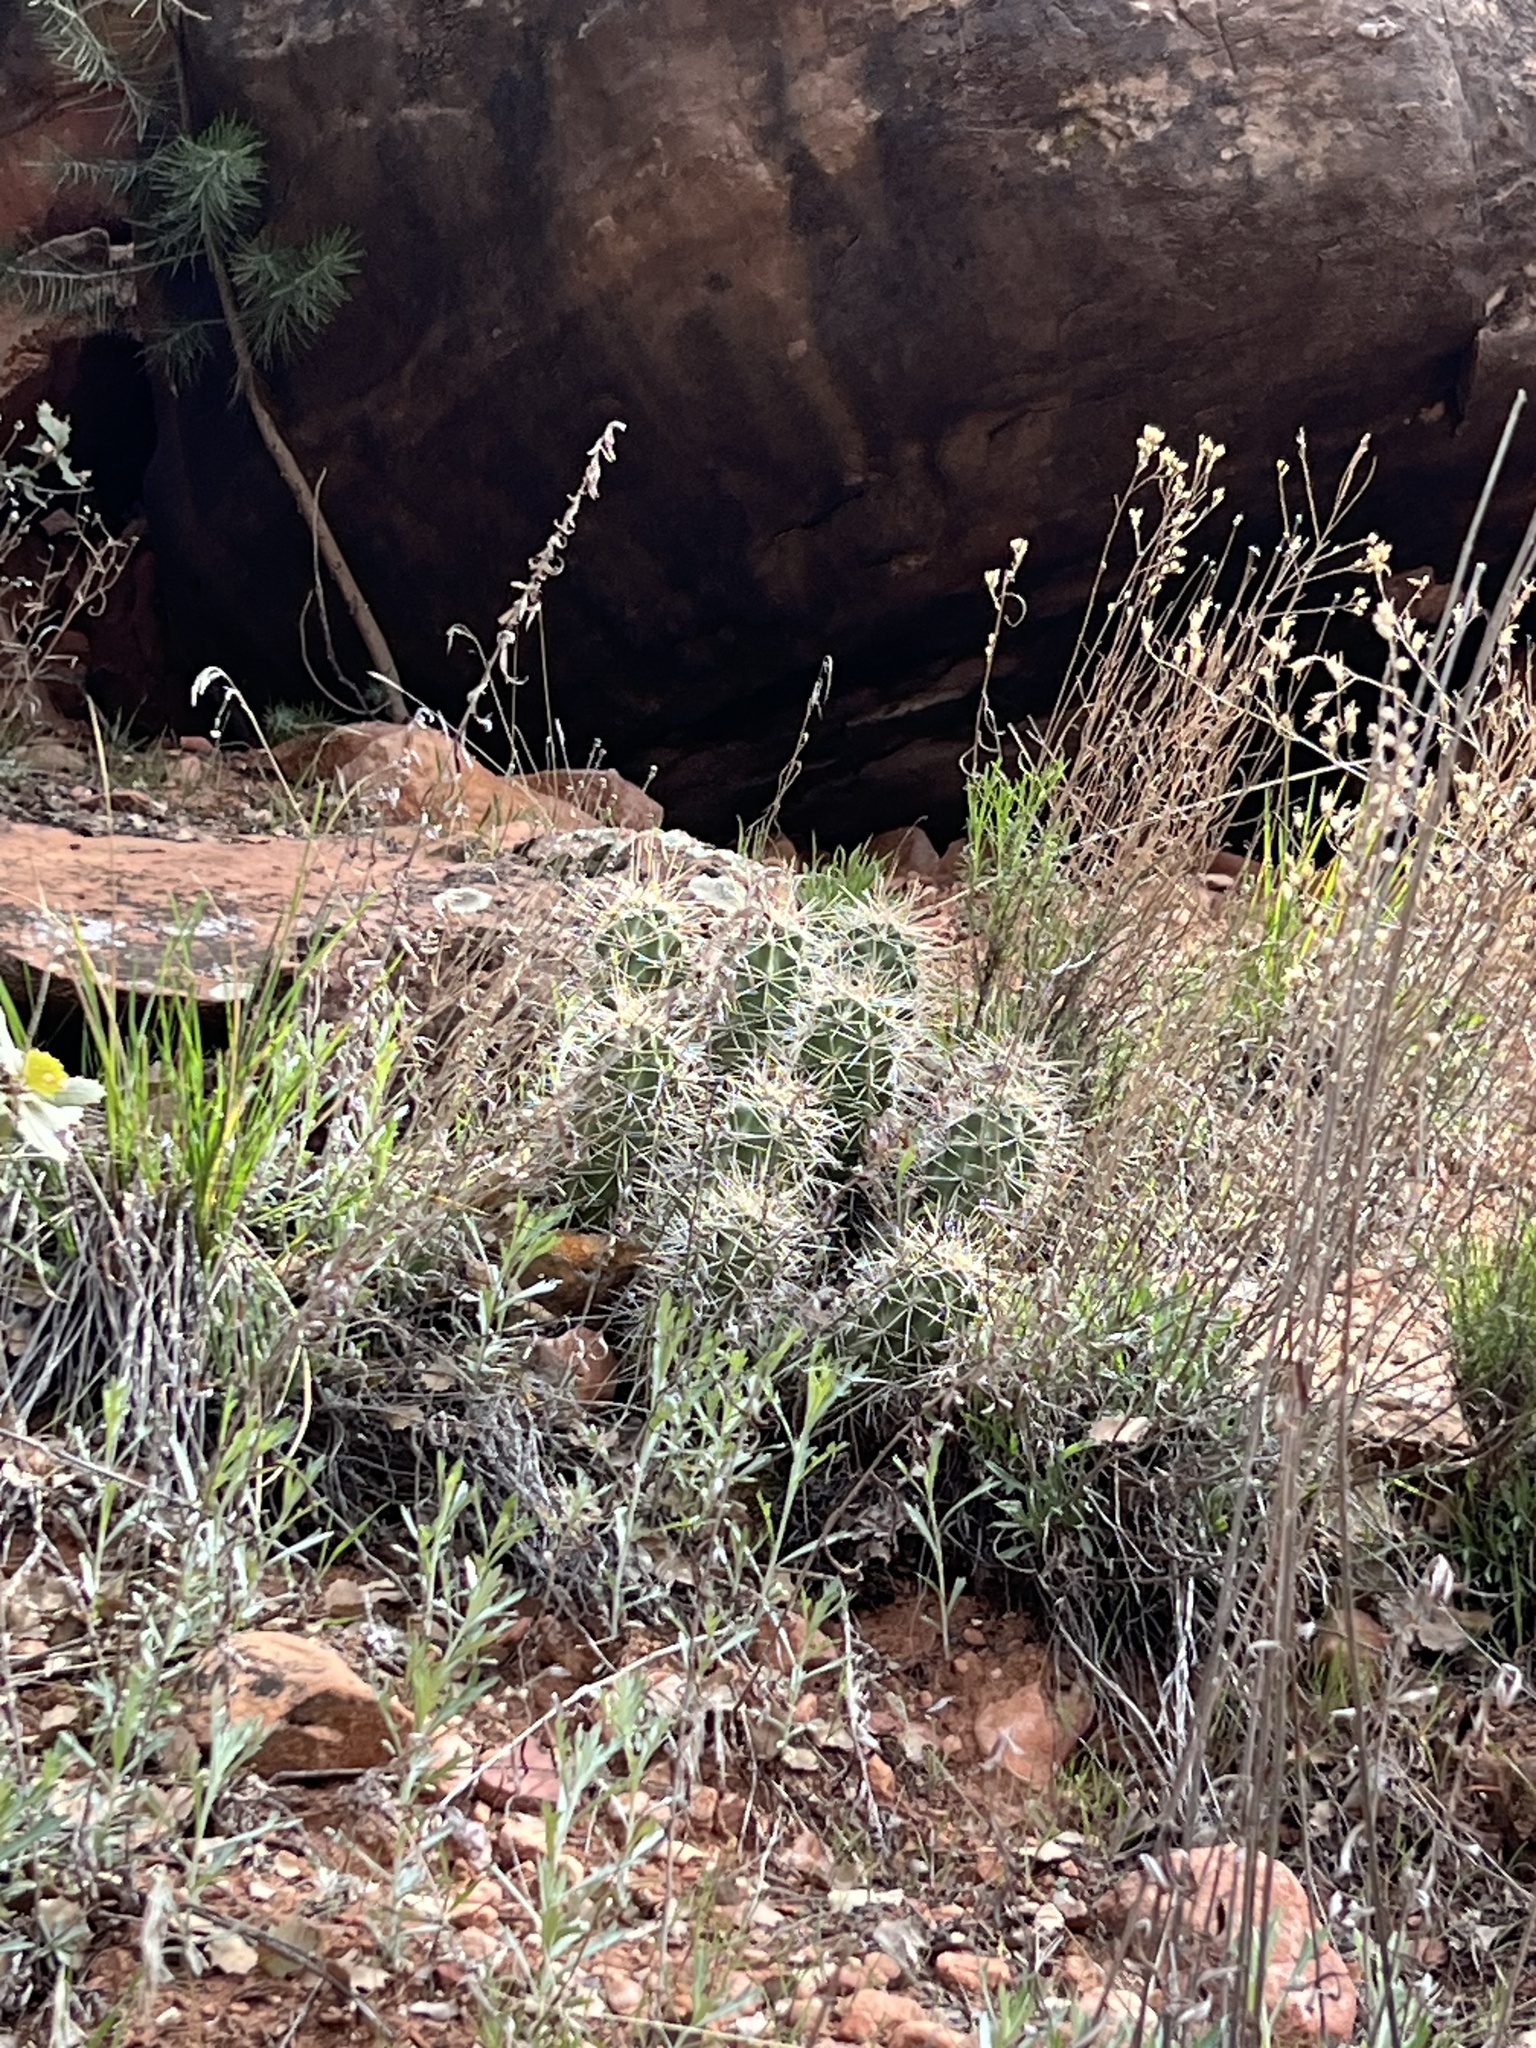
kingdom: Plantae
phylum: Tracheophyta
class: Magnoliopsida
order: Caryophyllales
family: Cactaceae
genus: Echinocereus
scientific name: Echinocereus triglochidiatus
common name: Claretcup hedgehog
